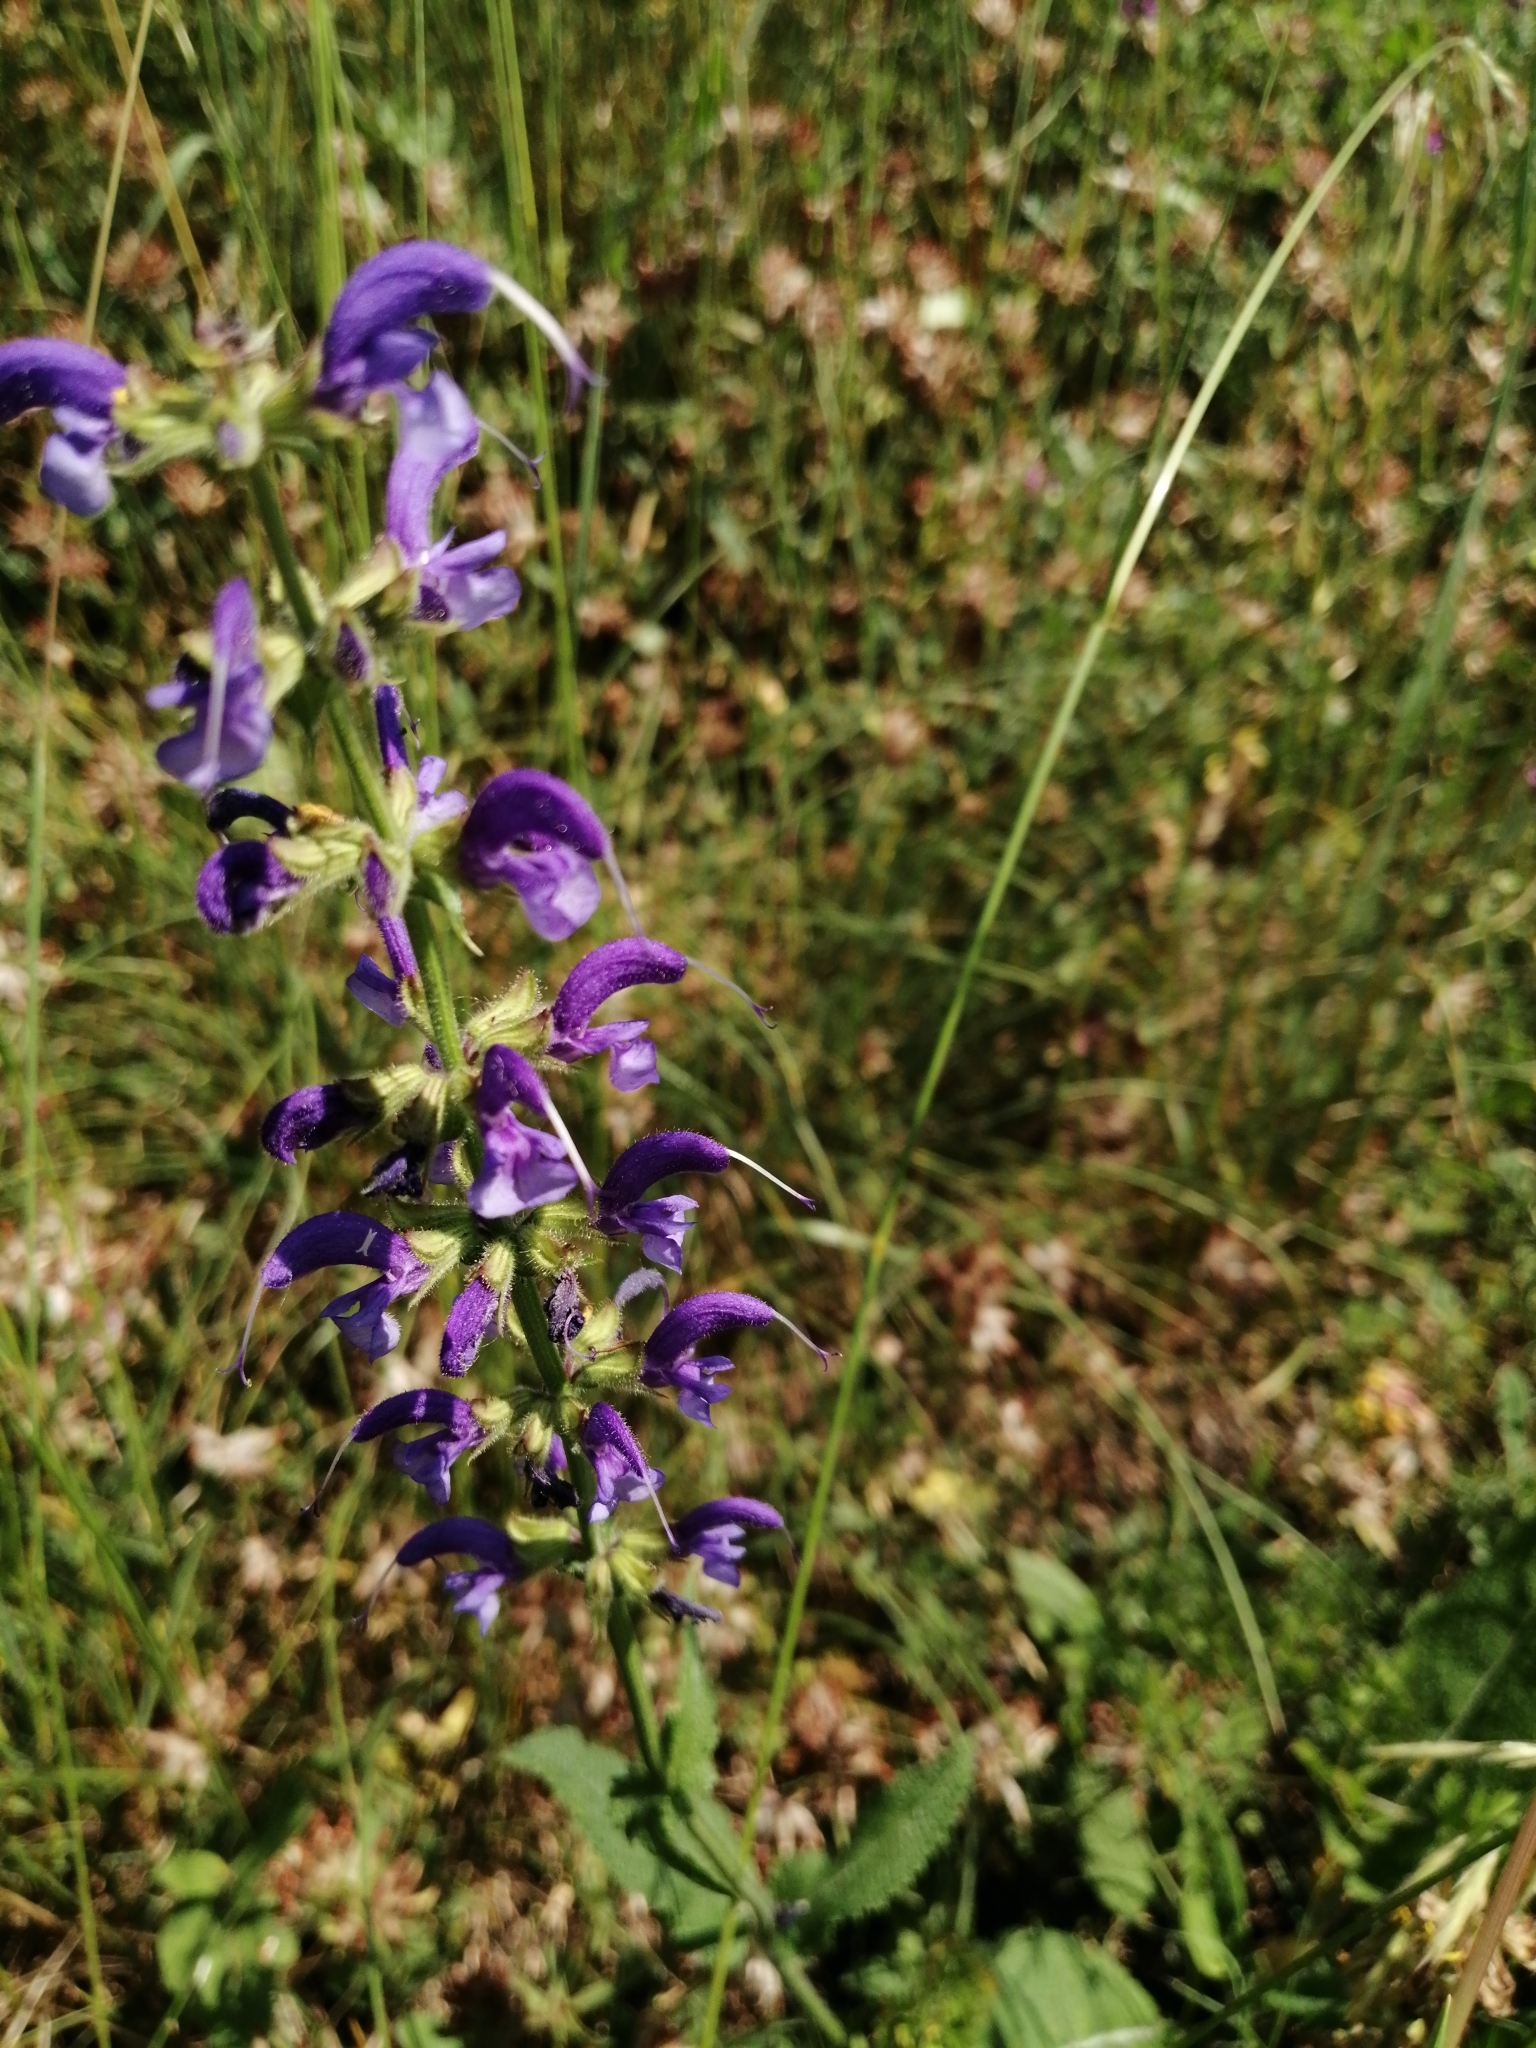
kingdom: Plantae
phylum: Tracheophyta
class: Magnoliopsida
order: Lamiales
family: Lamiaceae
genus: Salvia
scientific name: Salvia pratensis
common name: Meadow sage
